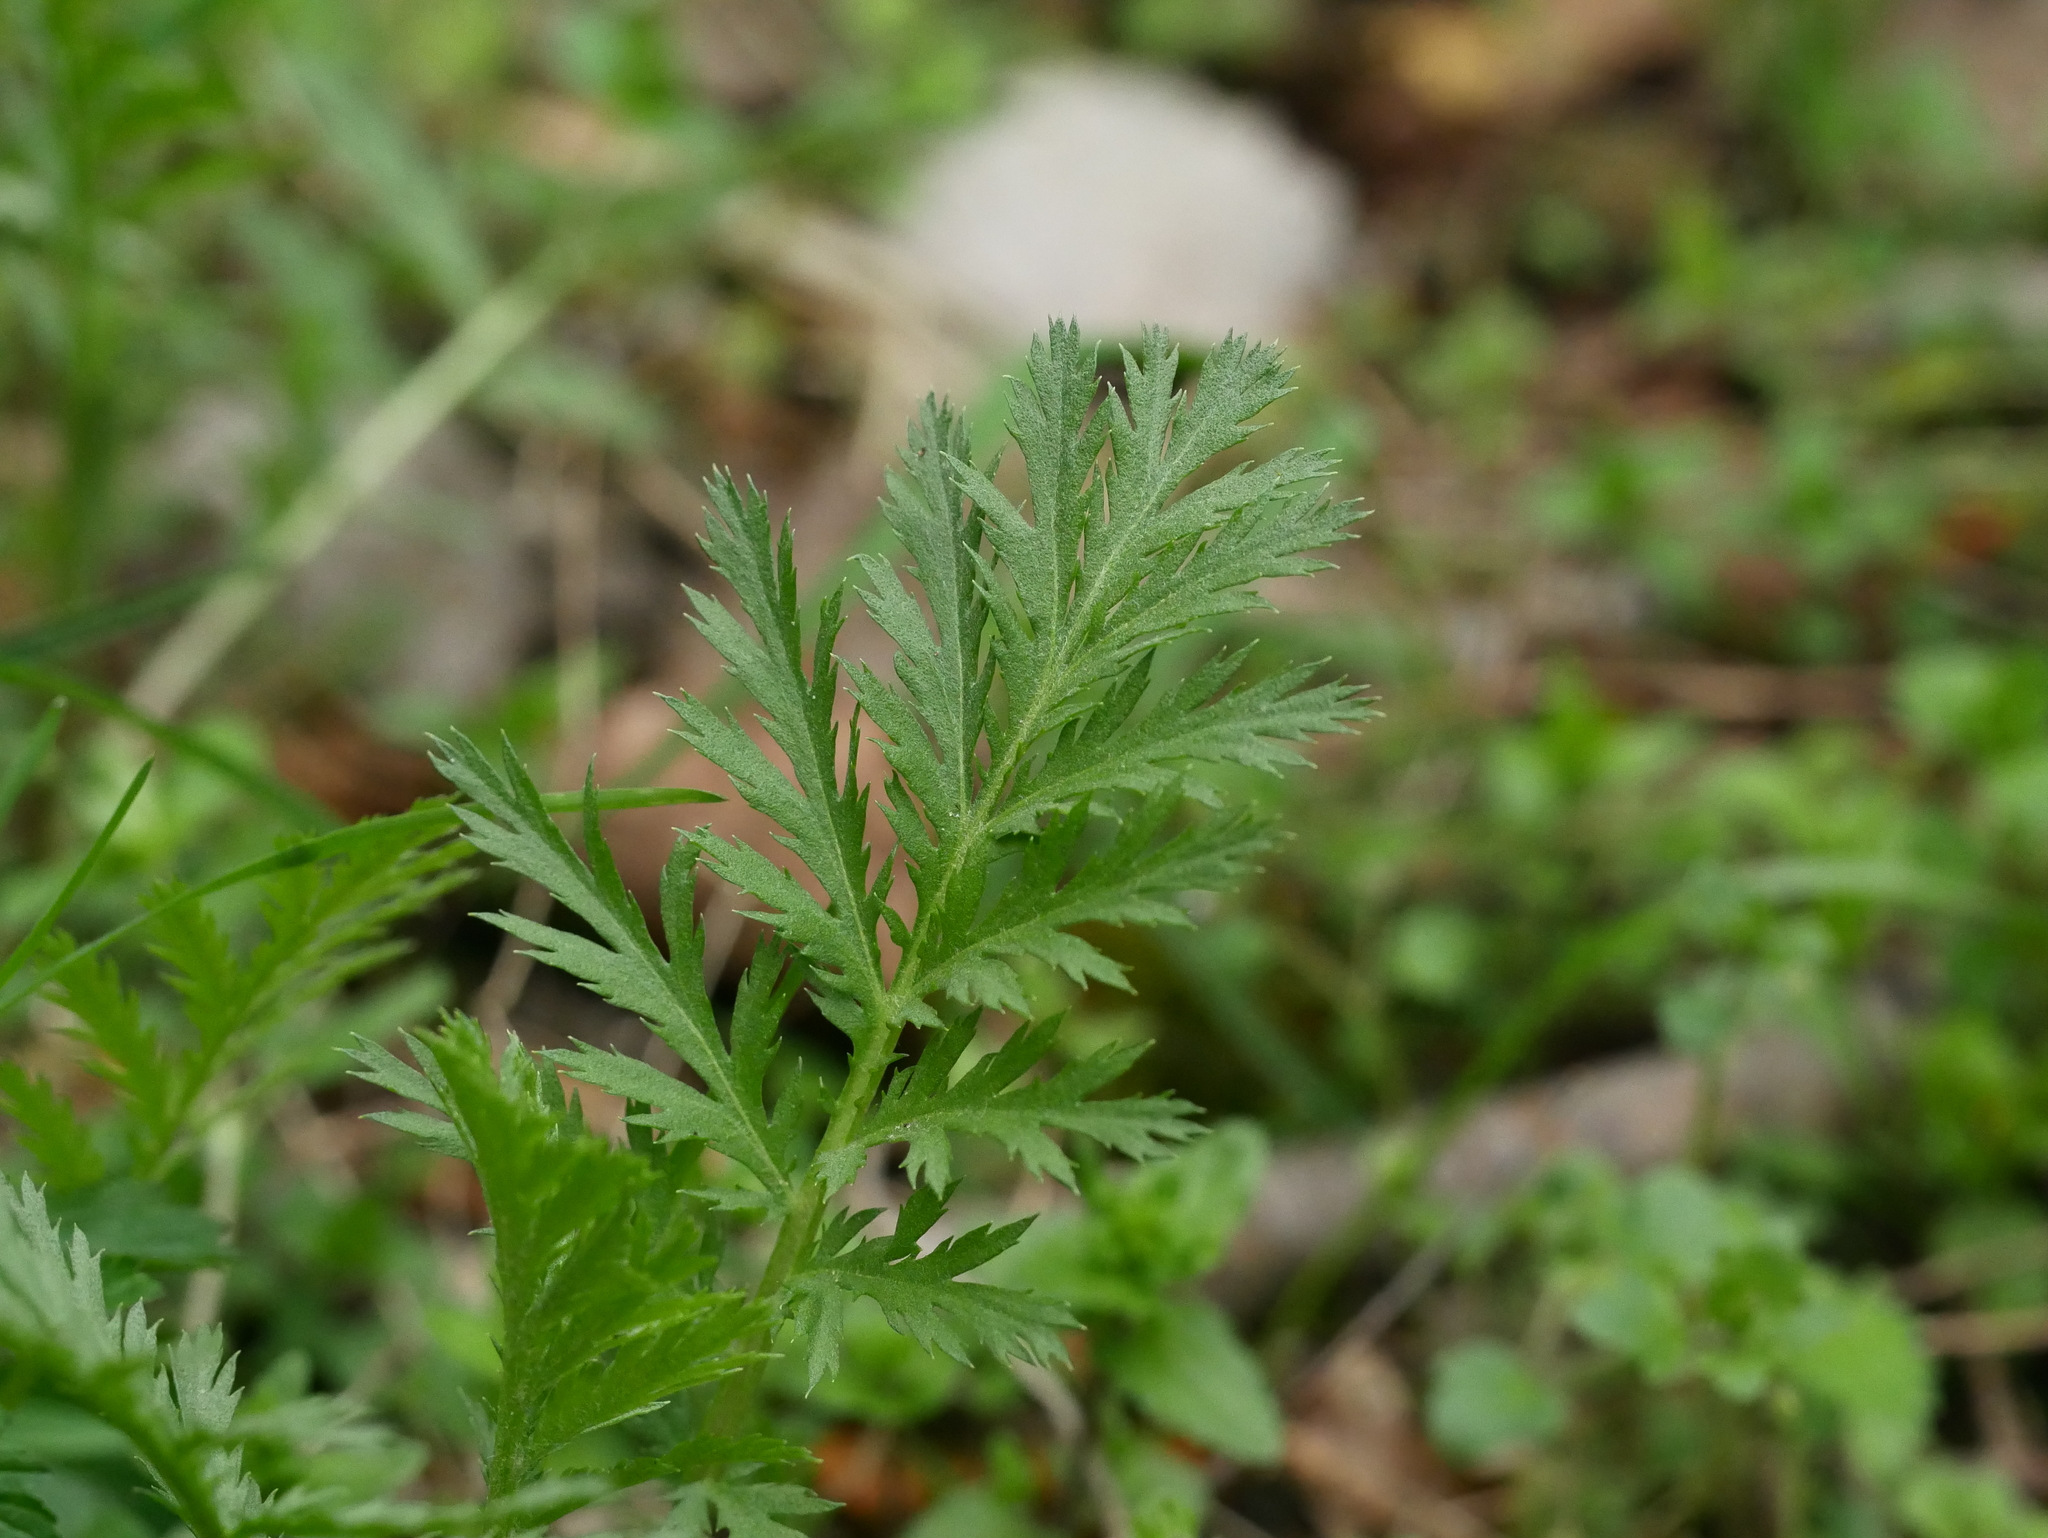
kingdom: Plantae
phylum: Tracheophyta
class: Magnoliopsida
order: Asterales
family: Asteraceae
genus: Tanacetum
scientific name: Tanacetum vulgare
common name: Common tansy
